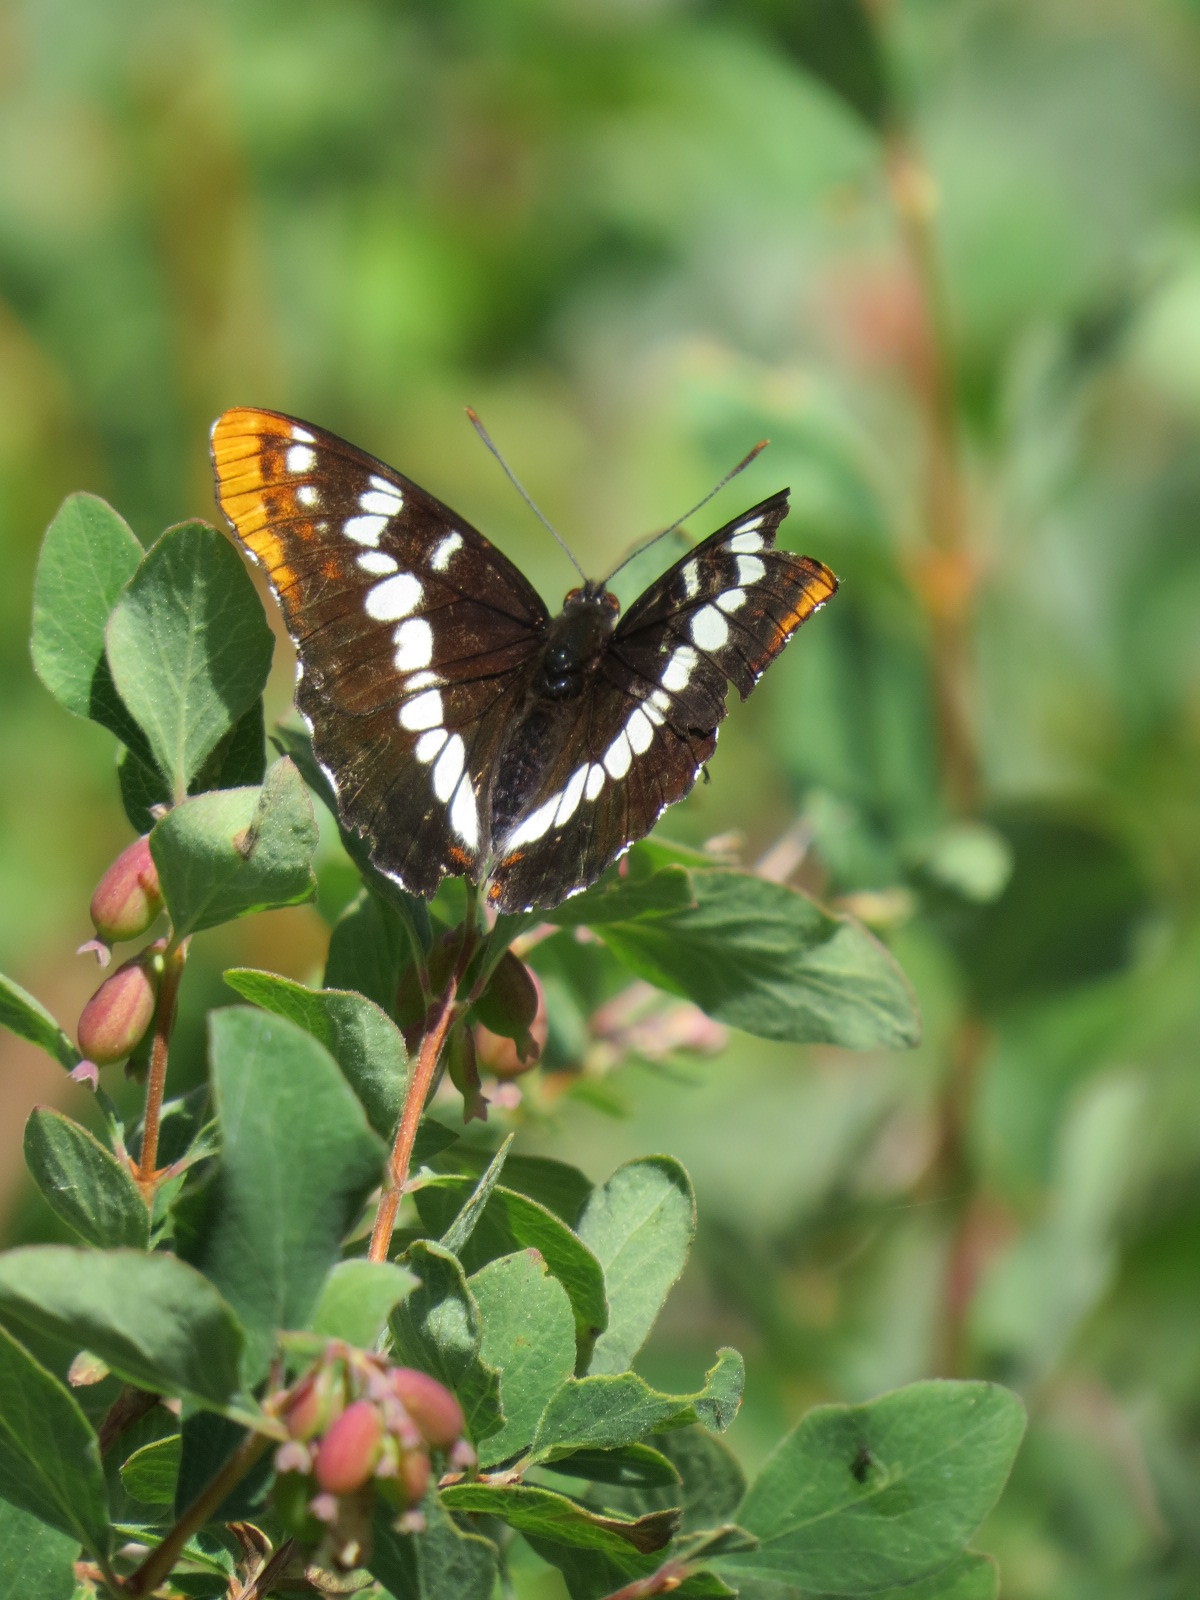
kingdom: Animalia
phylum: Arthropoda
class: Insecta
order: Lepidoptera
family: Nymphalidae
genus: Limenitis
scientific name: Limenitis lorquini
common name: Lorquin's admiral
